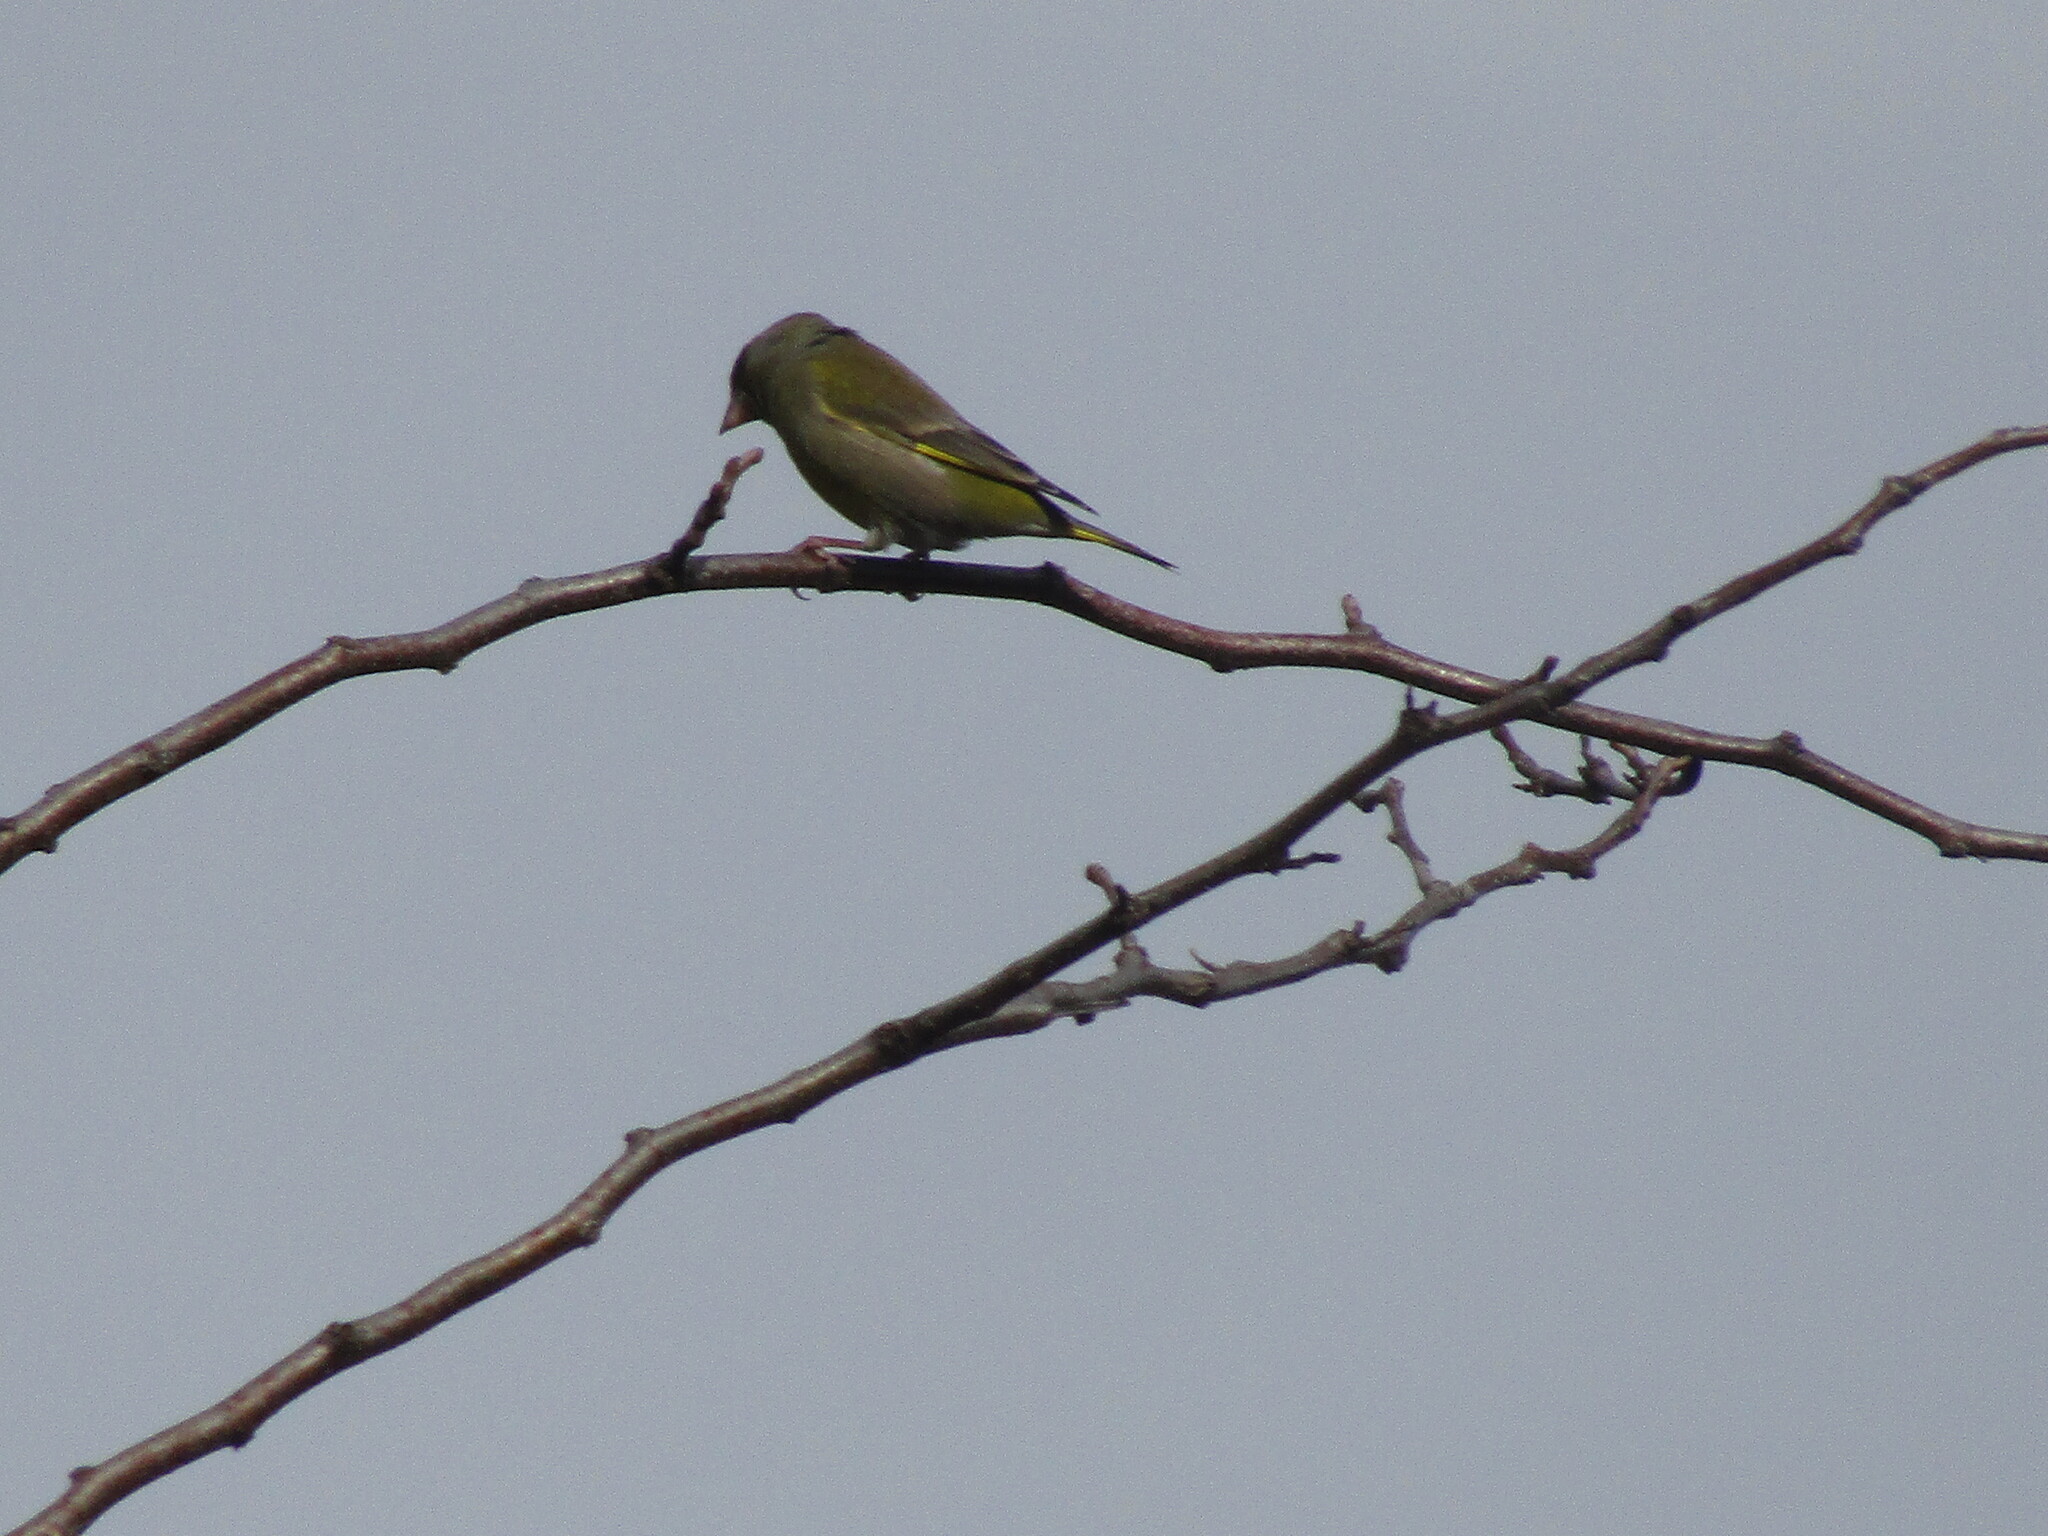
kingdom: Plantae
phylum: Tracheophyta
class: Liliopsida
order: Poales
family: Poaceae
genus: Chloris
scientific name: Chloris chloris
